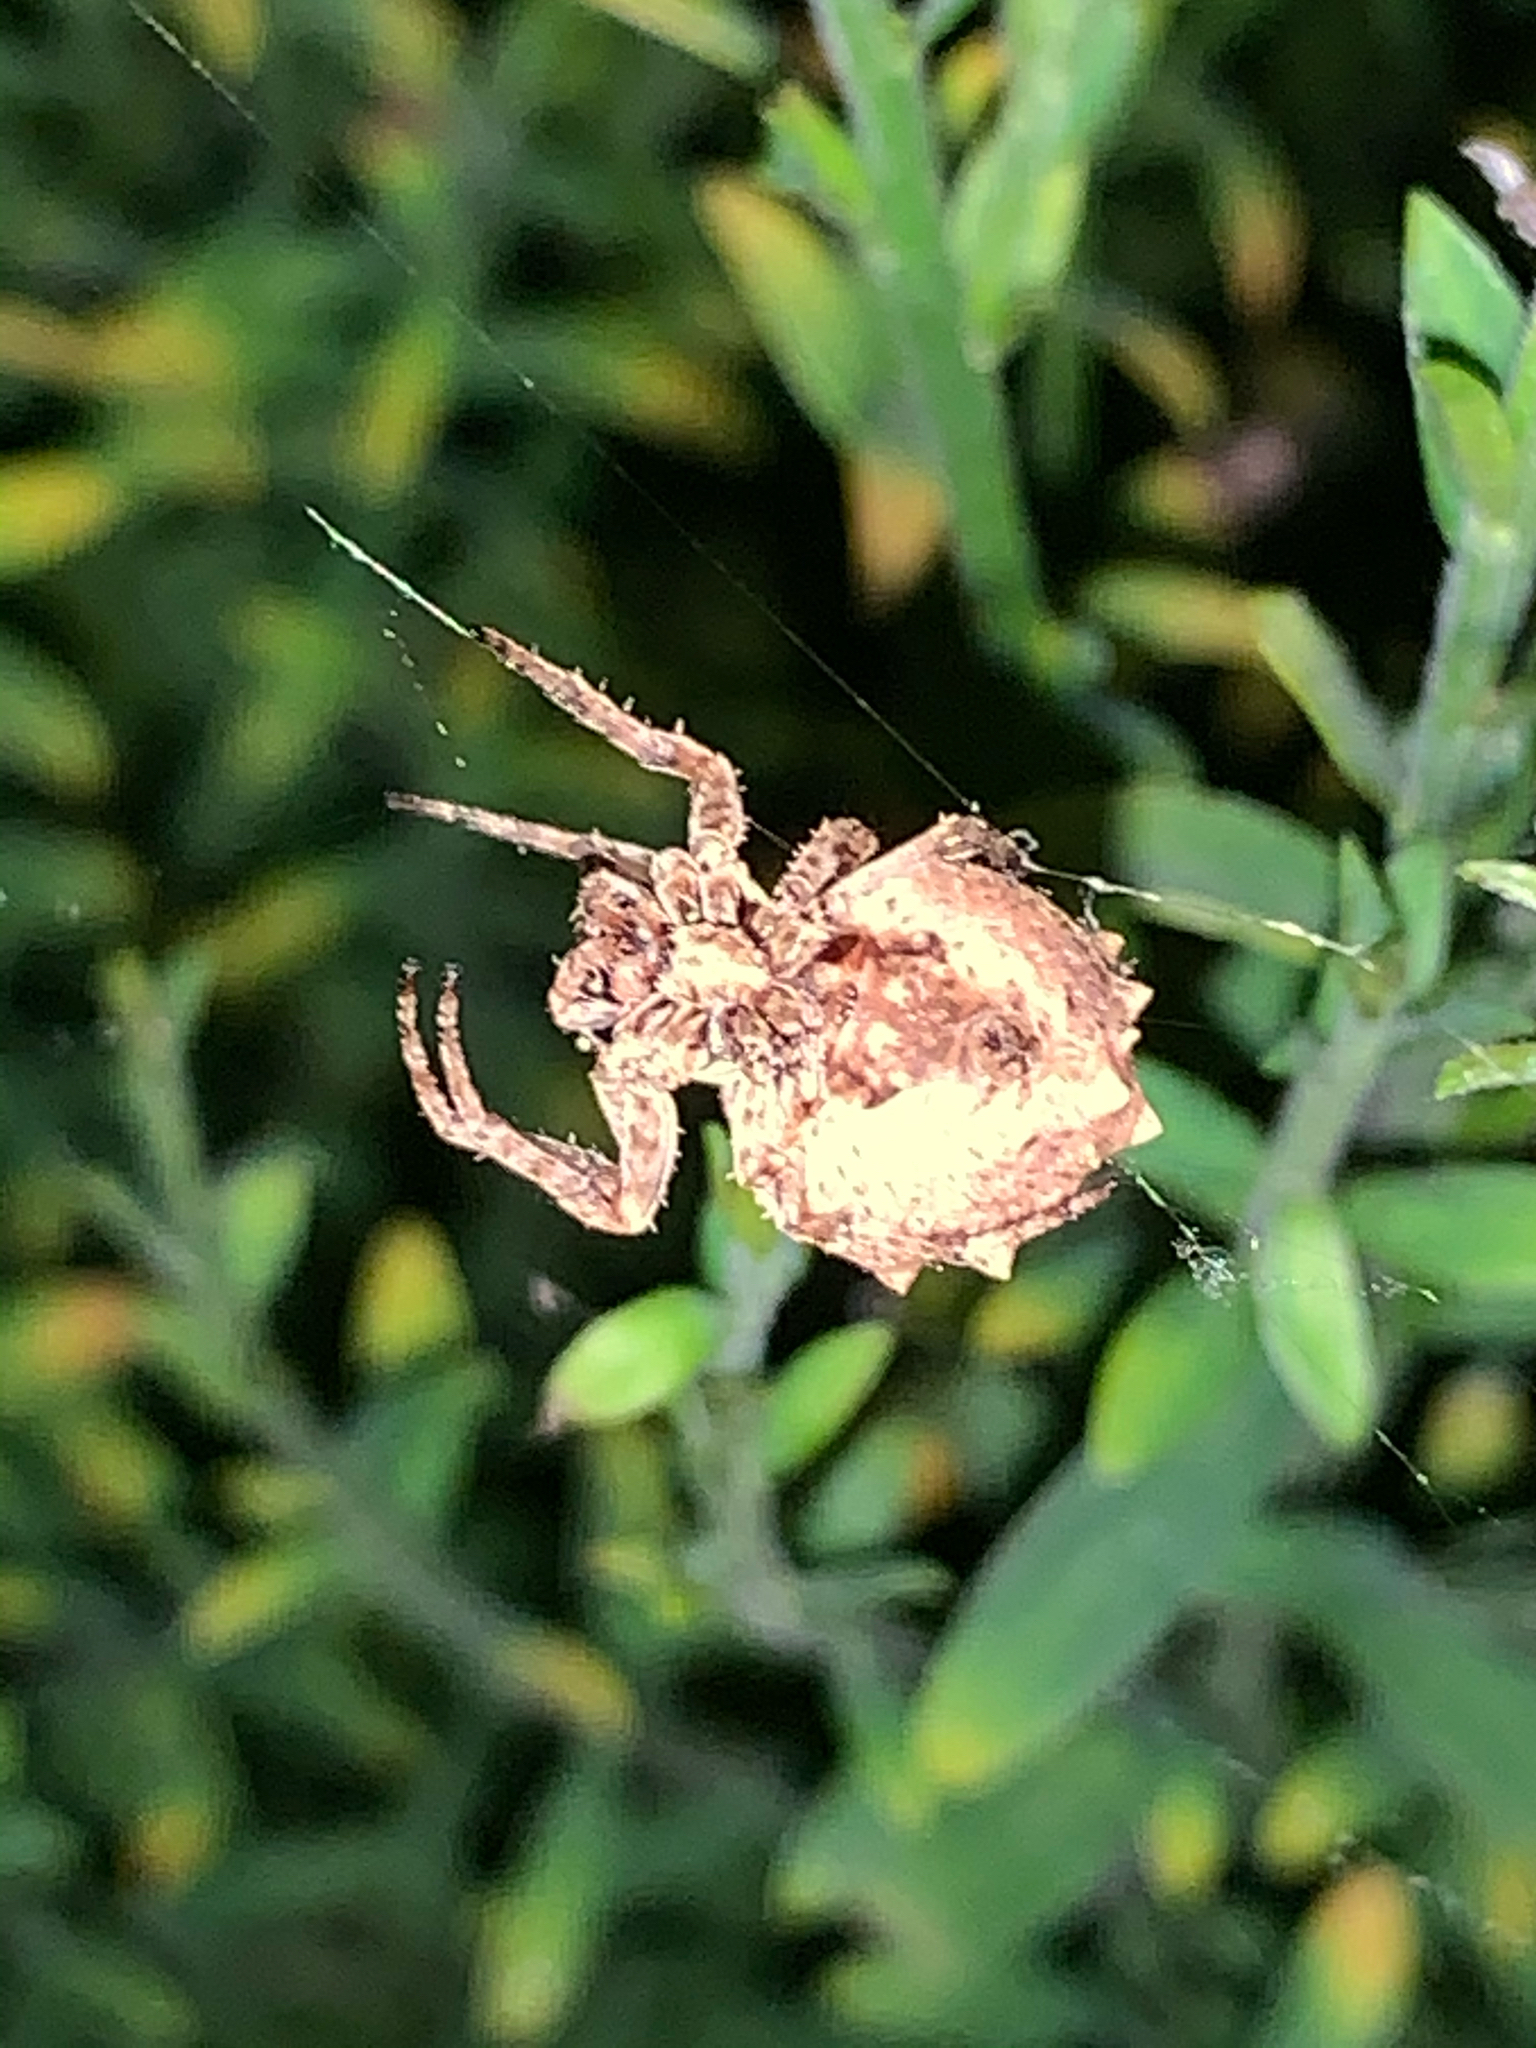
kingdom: Animalia
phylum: Arthropoda
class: Arachnida
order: Araneae
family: Araneidae
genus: Acanthepeira
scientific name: Acanthepeira stellata
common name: Starbellied orbweaver
